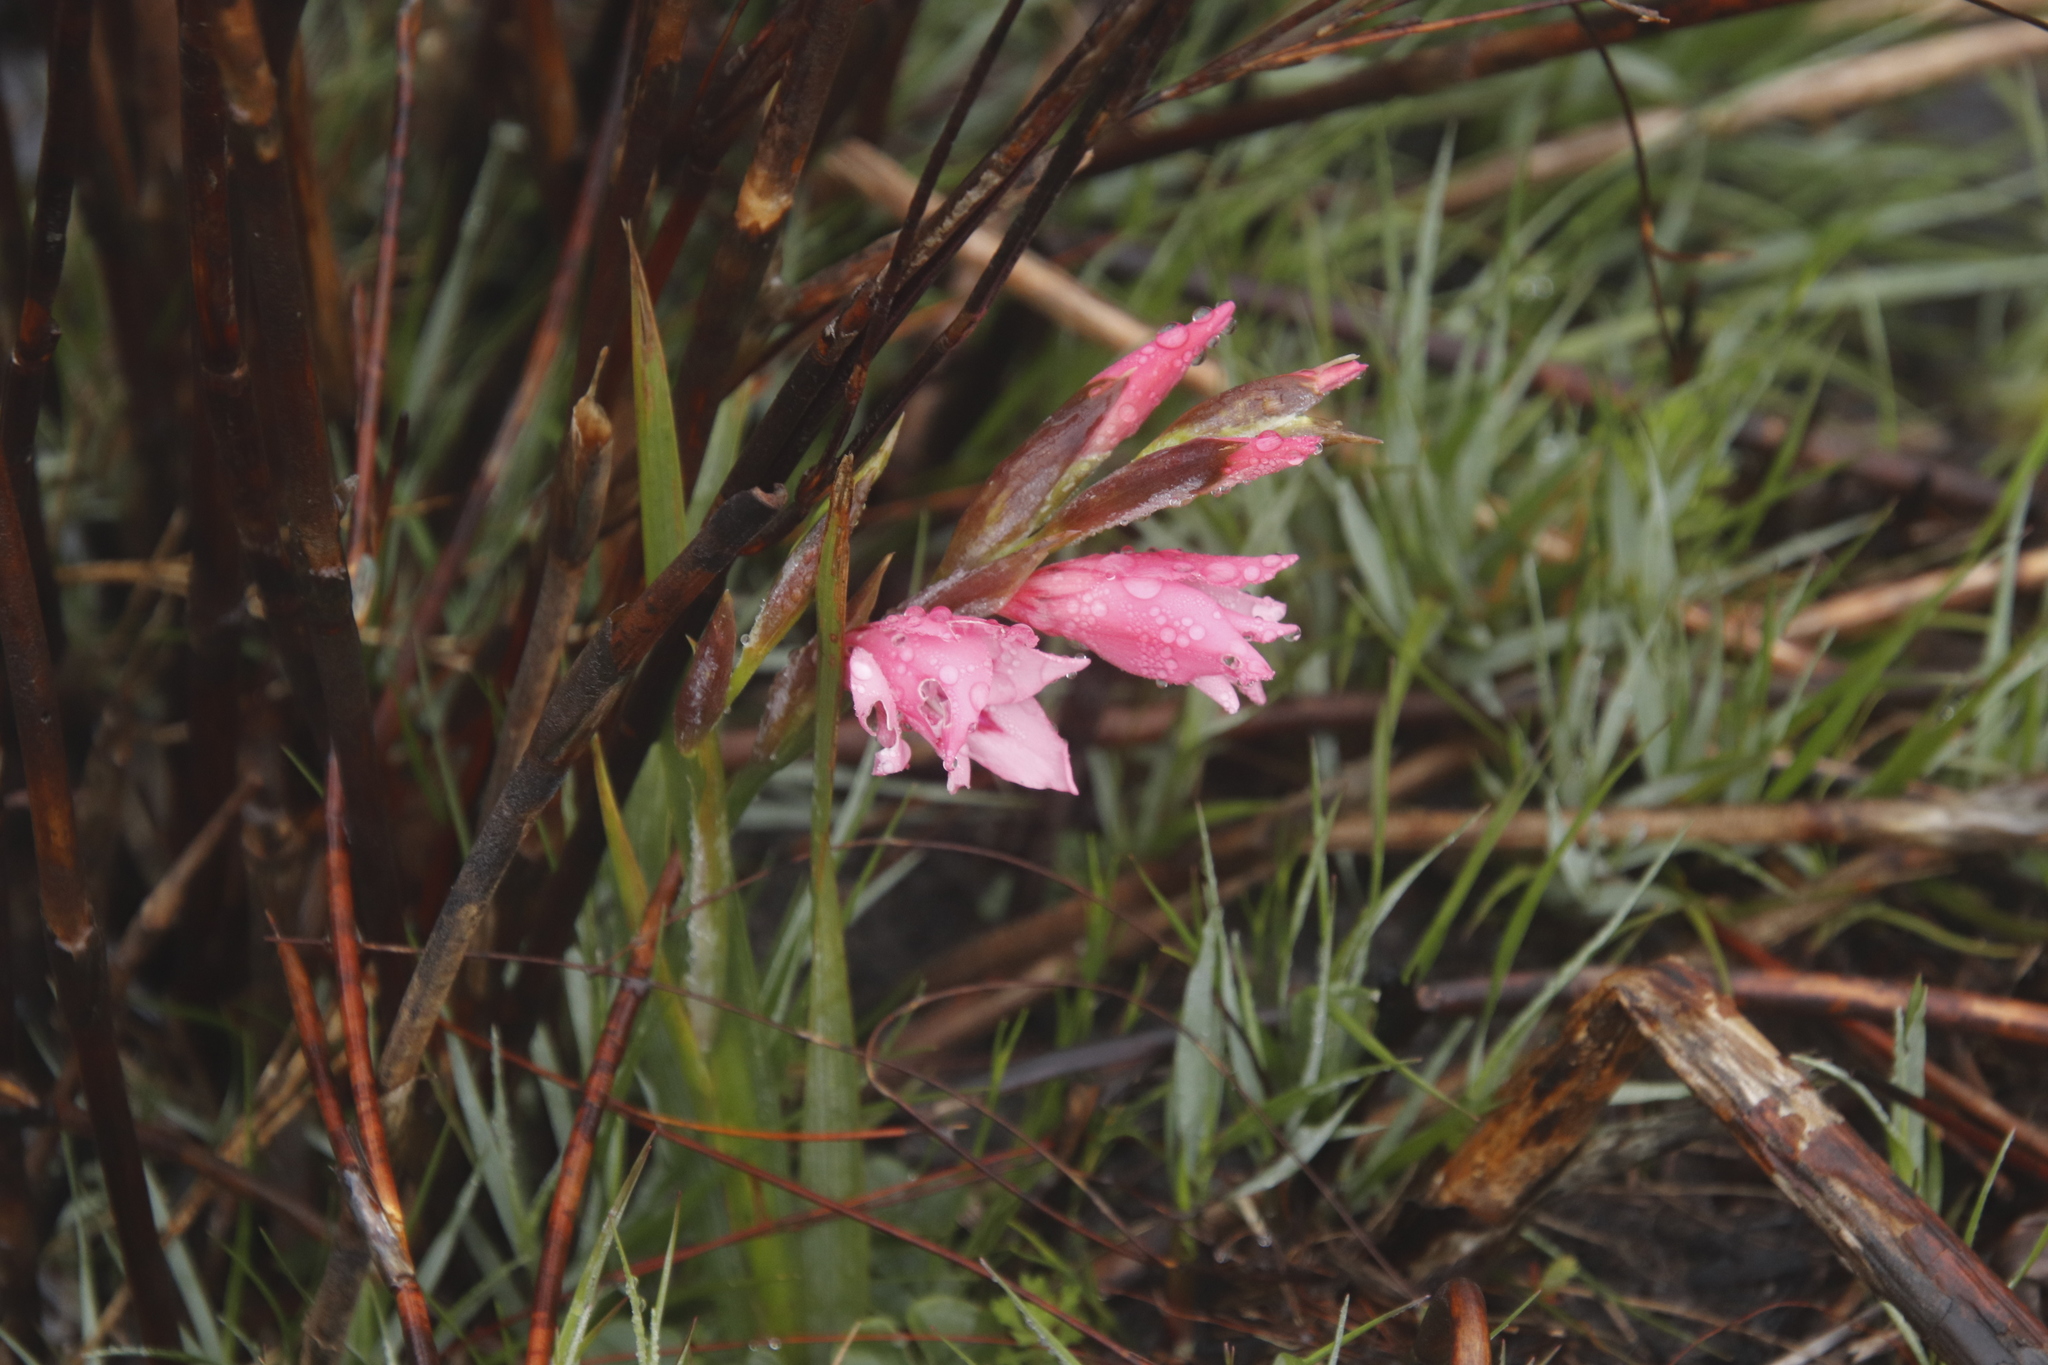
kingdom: Plantae
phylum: Tracheophyta
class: Liliopsida
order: Asparagales
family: Iridaceae
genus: Gladiolus
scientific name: Gladiolus carneus
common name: Painted-lady
